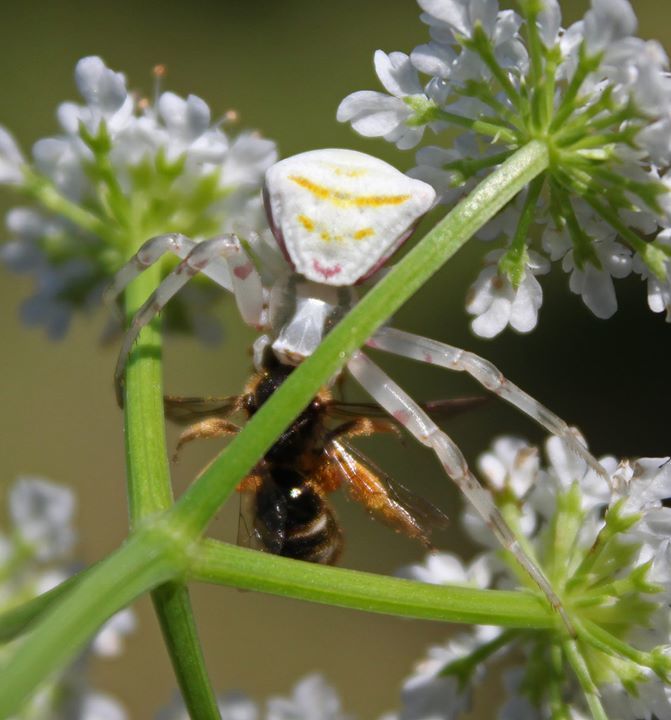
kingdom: Animalia
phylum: Arthropoda
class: Arachnida
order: Araneae
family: Thomisidae
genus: Thomisus
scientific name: Thomisus onustus
